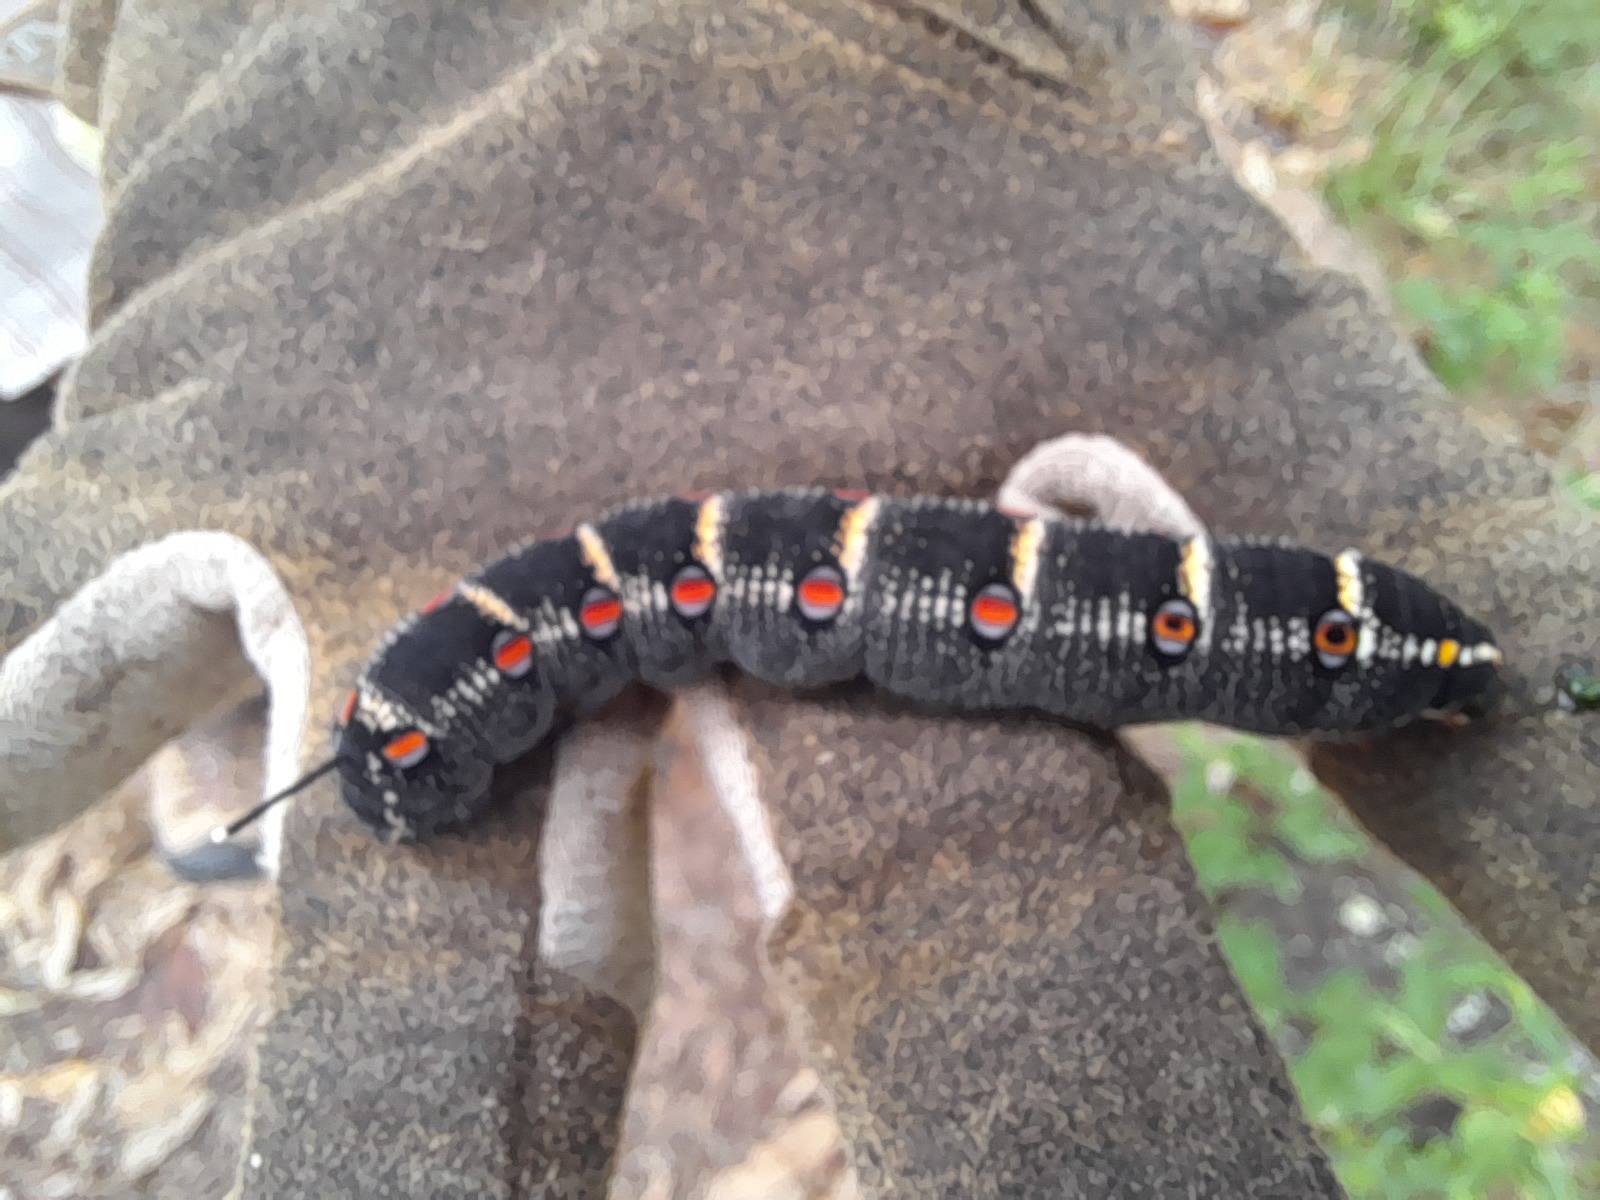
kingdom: Animalia
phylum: Arthropoda
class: Insecta
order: Lepidoptera
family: Sphingidae
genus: Theretra
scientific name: Theretra oldenlandiae
